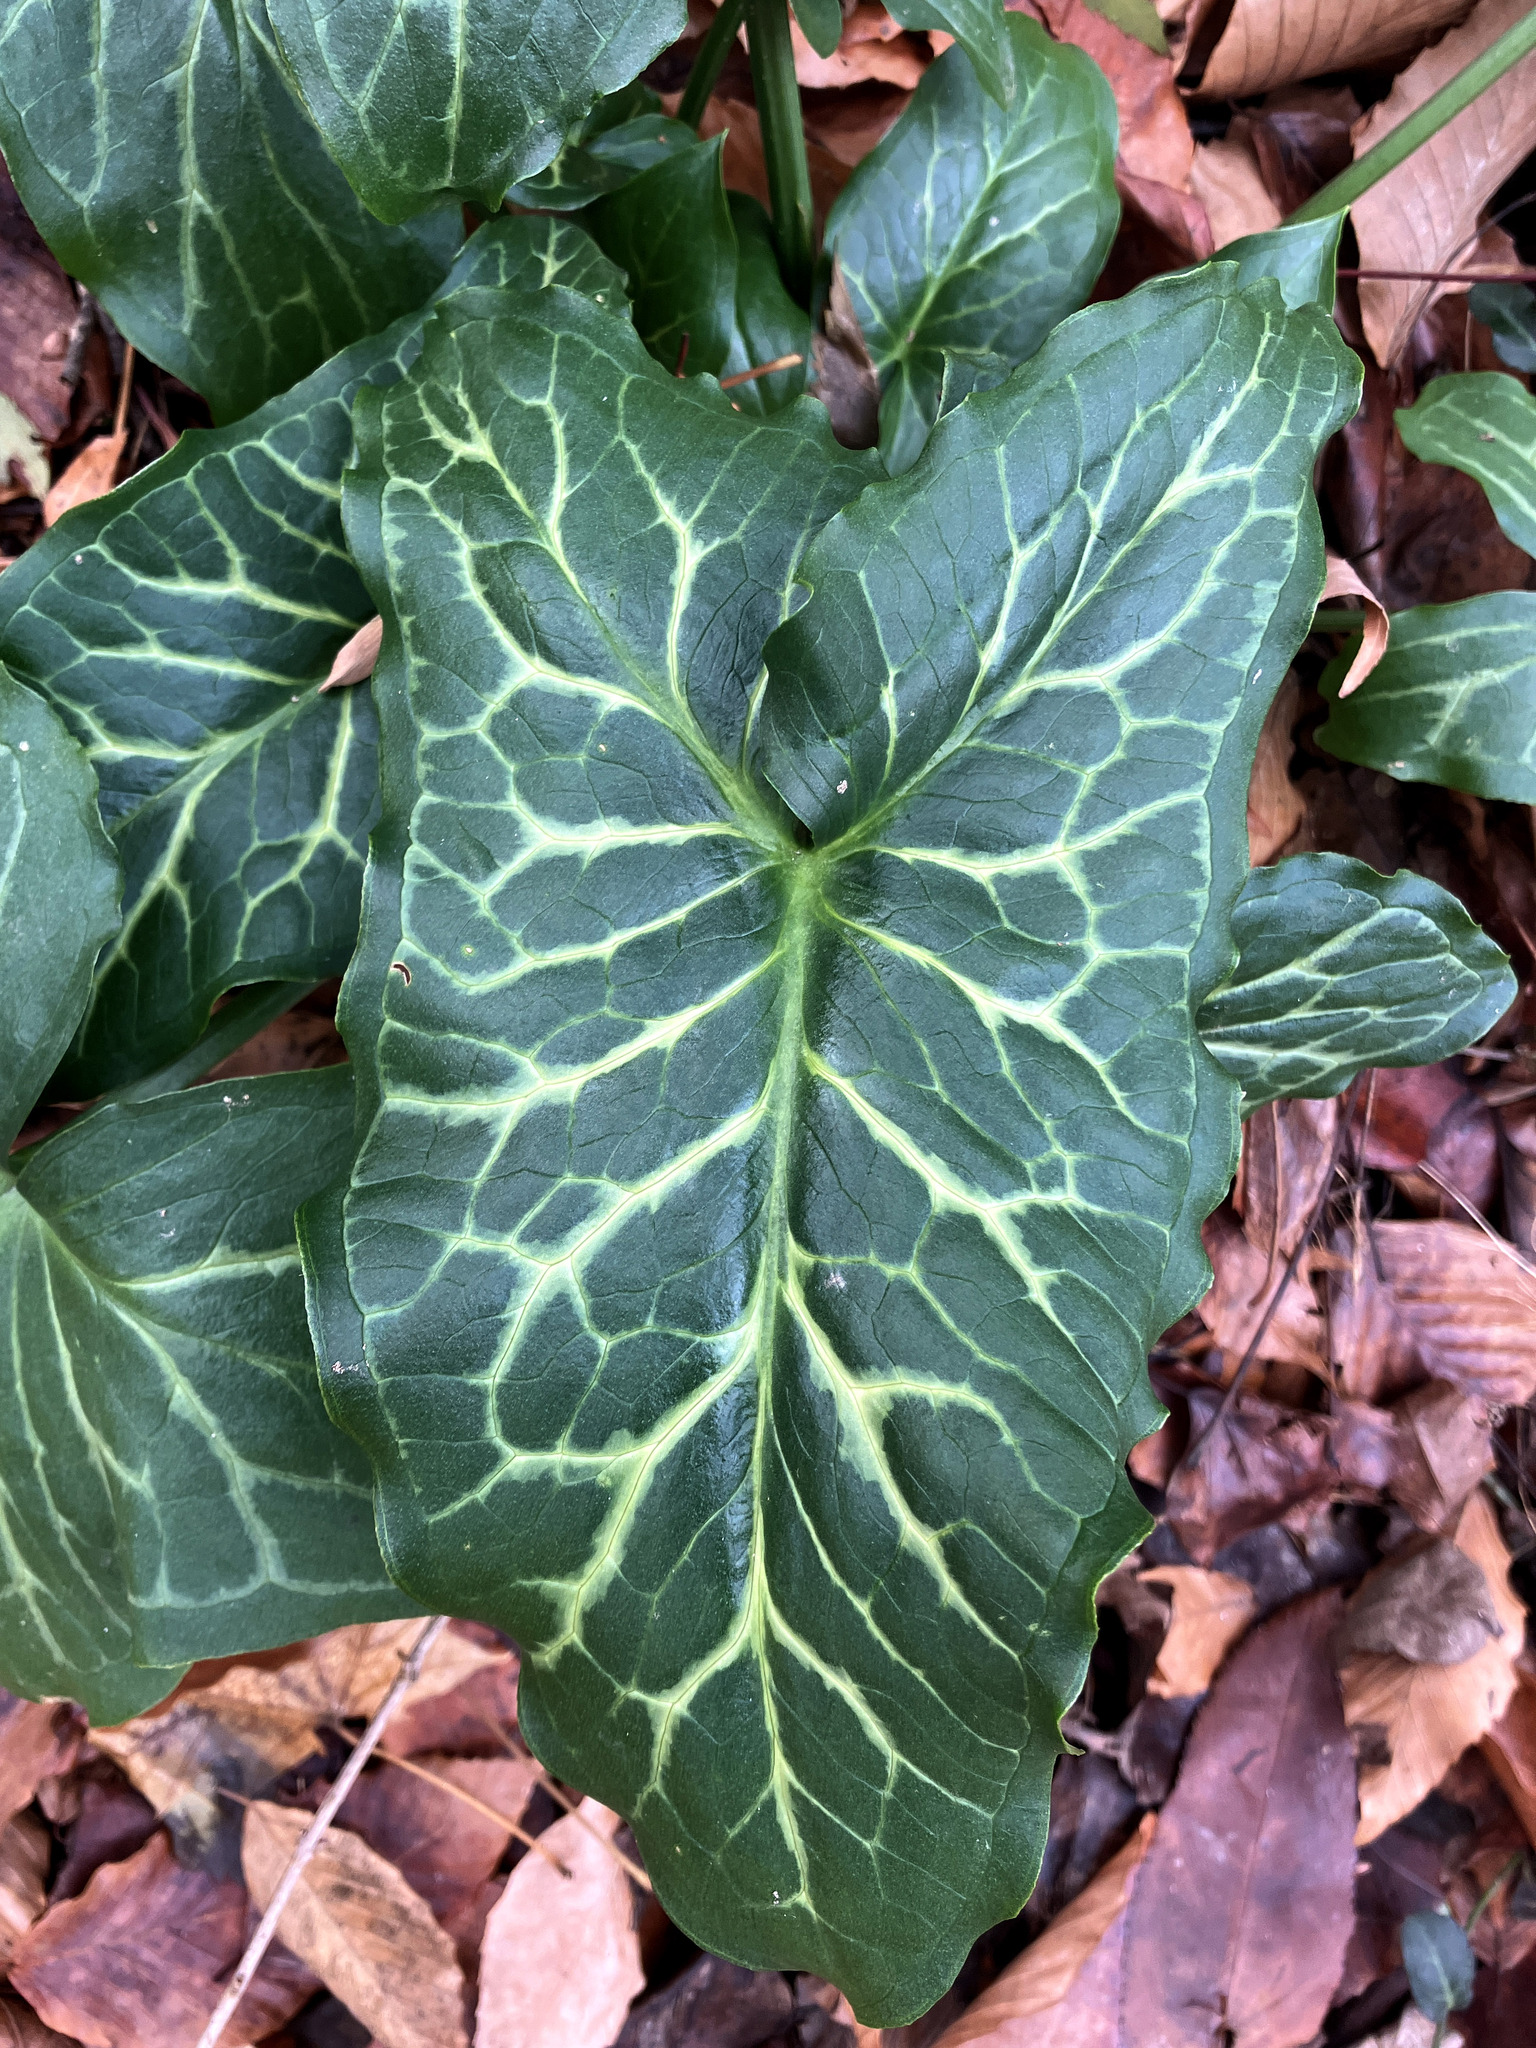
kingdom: Plantae
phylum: Tracheophyta
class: Liliopsida
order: Alismatales
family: Araceae
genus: Arum
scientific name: Arum italicum
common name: Italian lords-and-ladies
